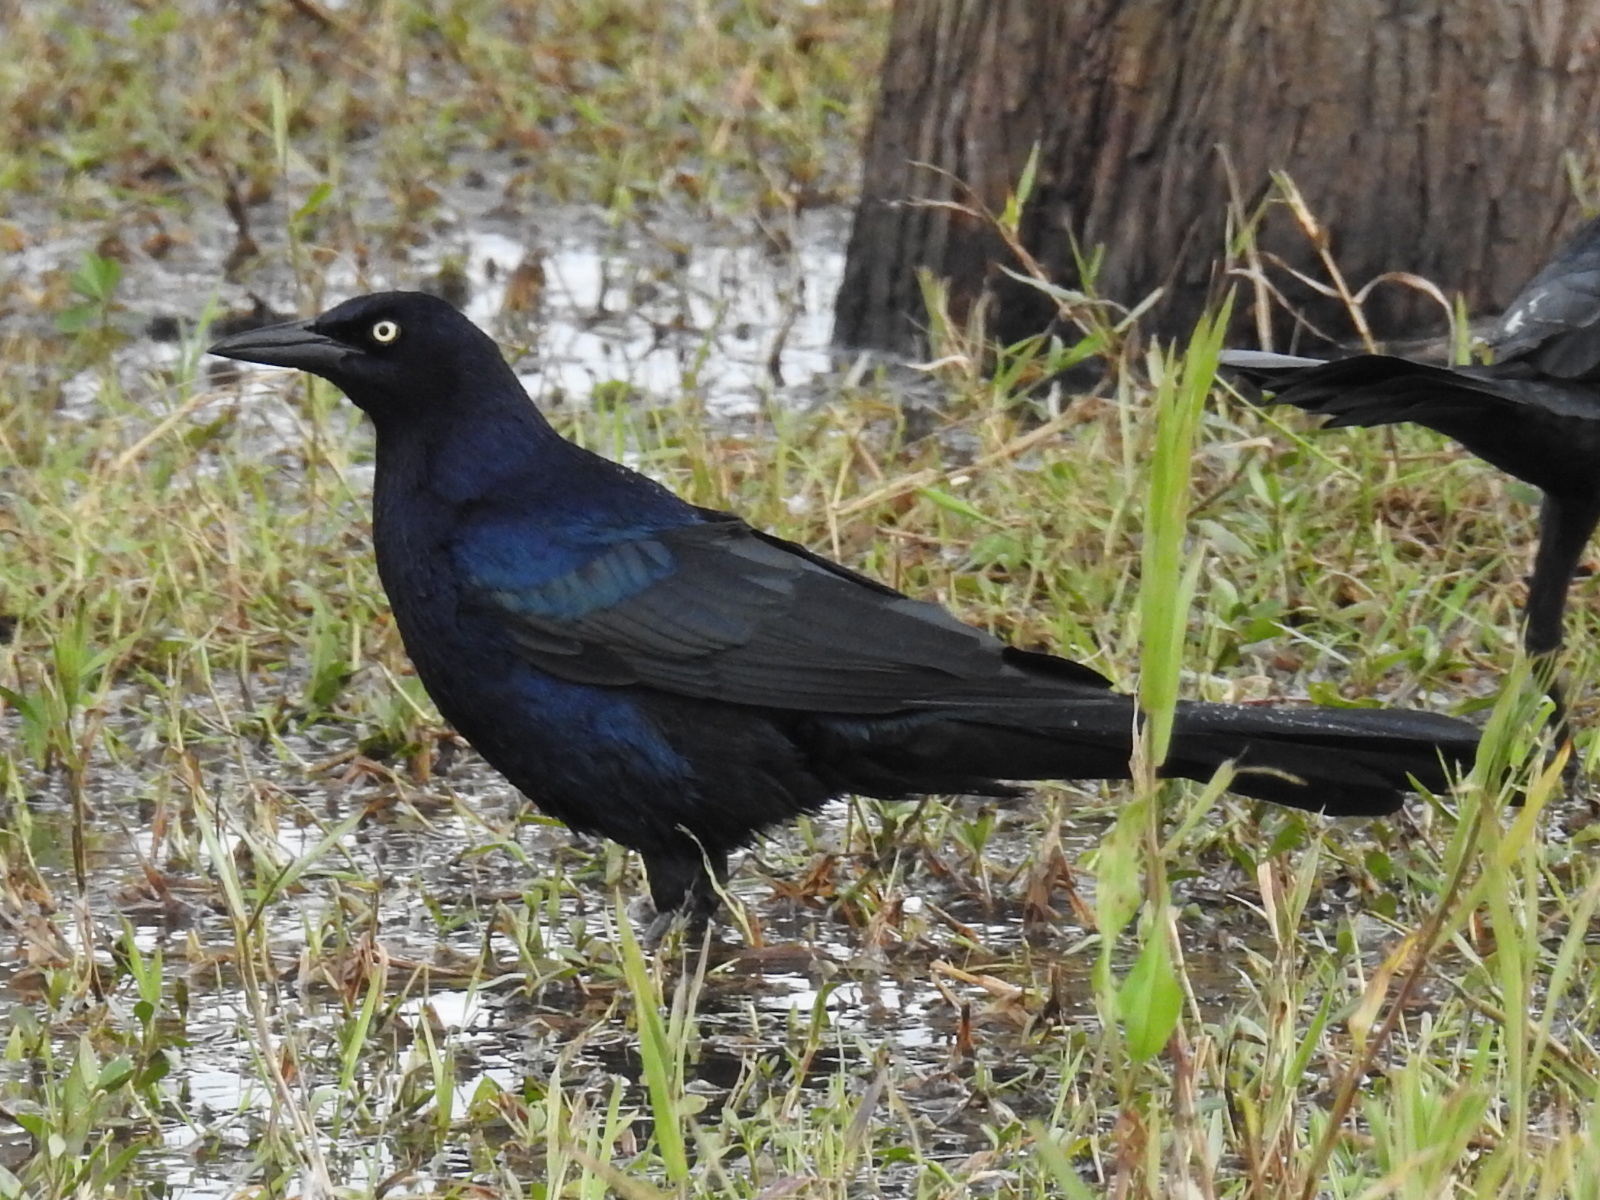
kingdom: Animalia
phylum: Chordata
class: Aves
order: Passeriformes
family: Icteridae
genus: Quiscalus
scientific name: Quiscalus mexicanus
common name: Great-tailed grackle
